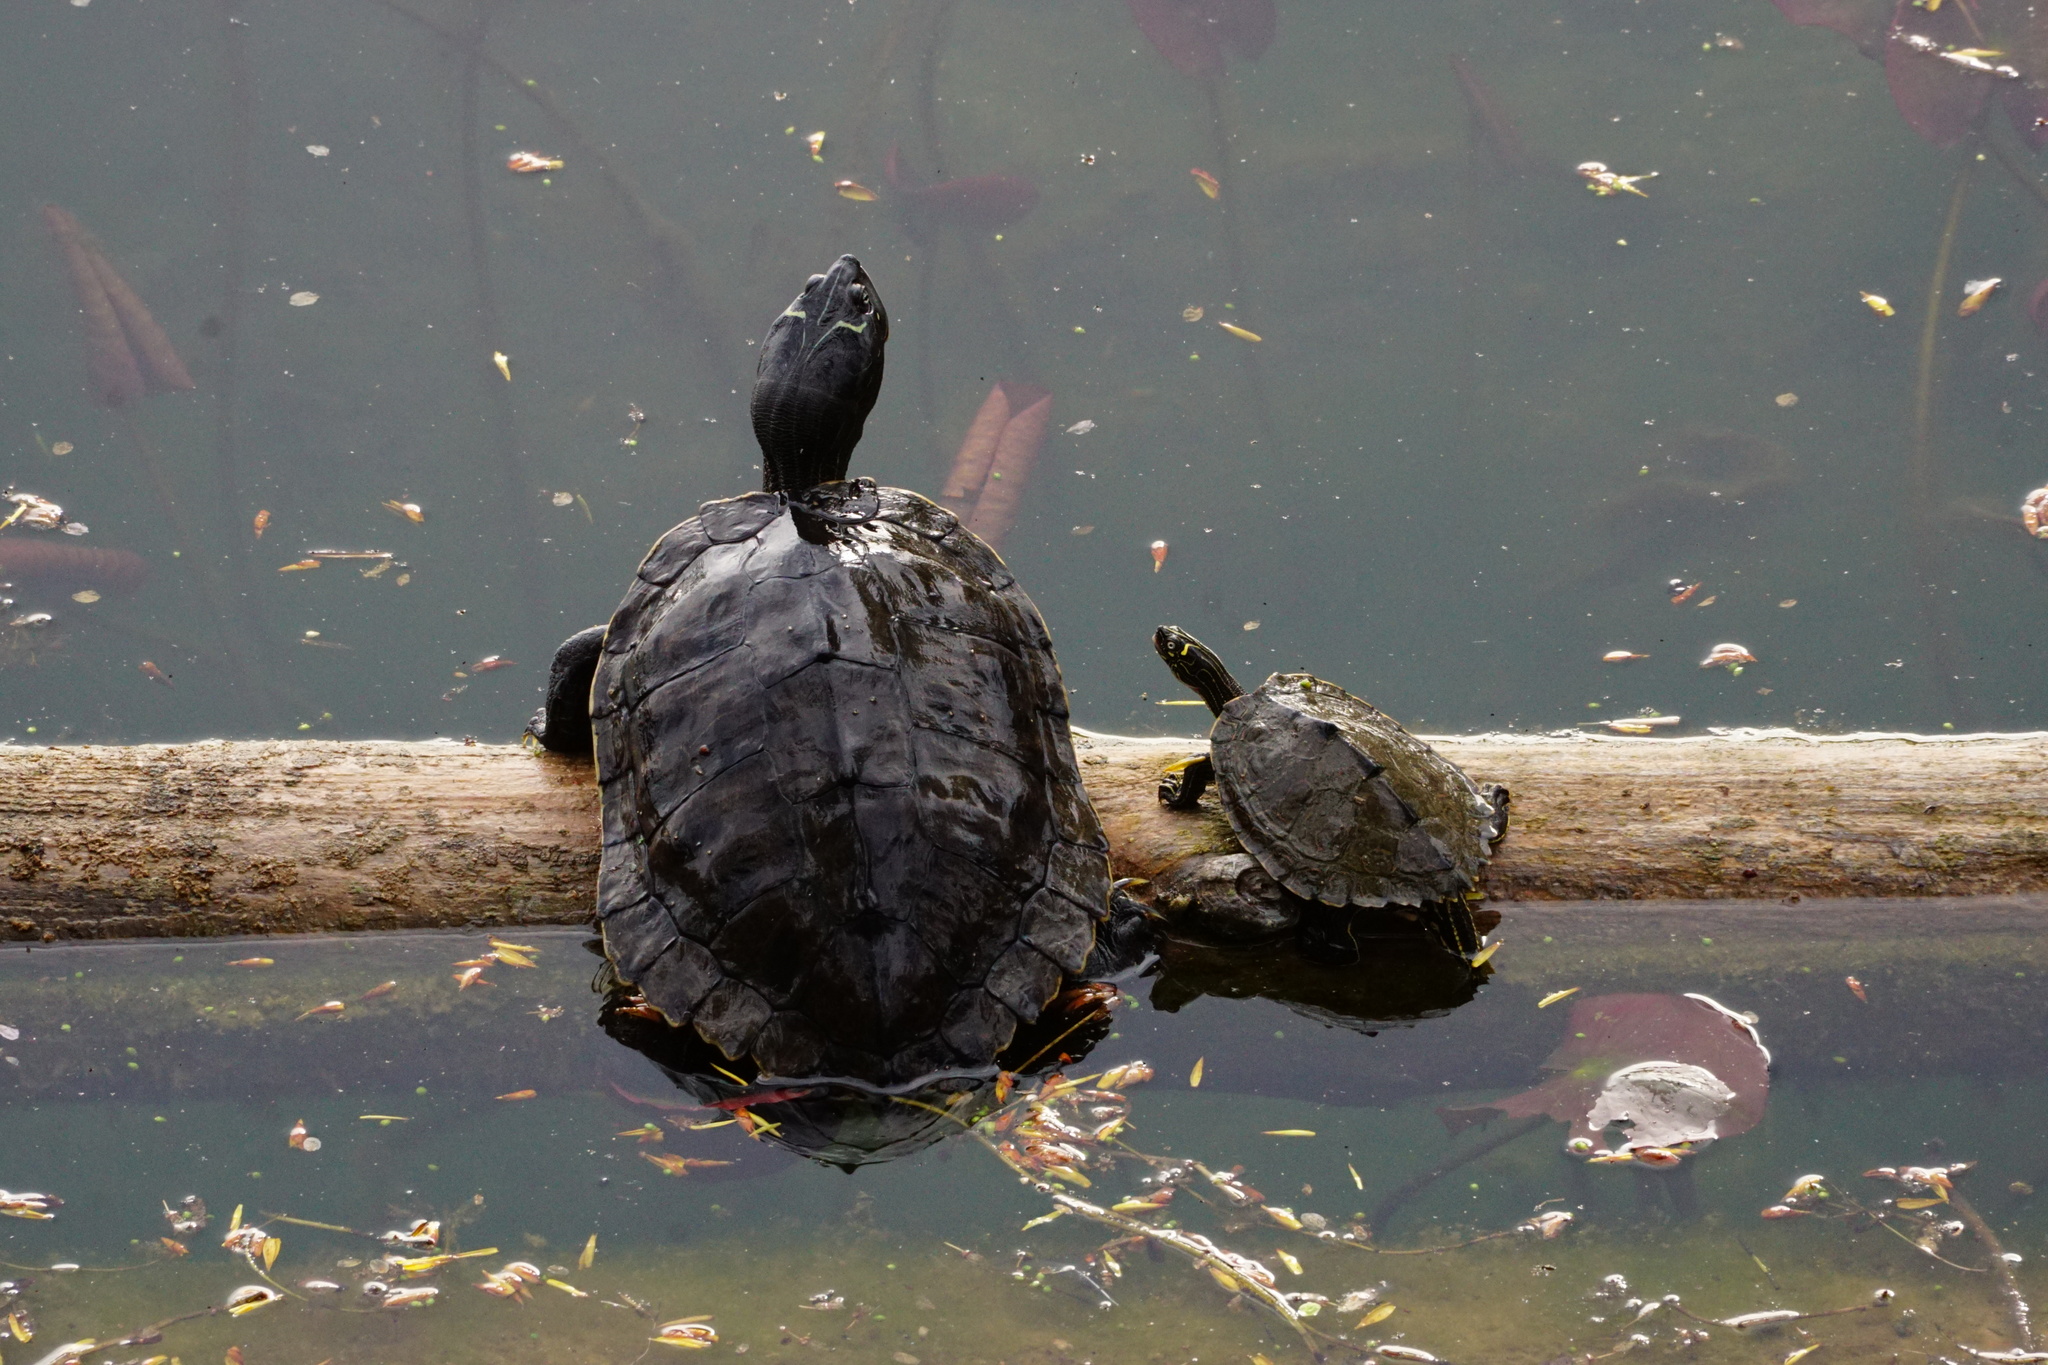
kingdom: Animalia
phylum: Chordata
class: Testudines
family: Emydidae
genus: Graptemys
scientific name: Graptemys pseudogeographica
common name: False map turtle
